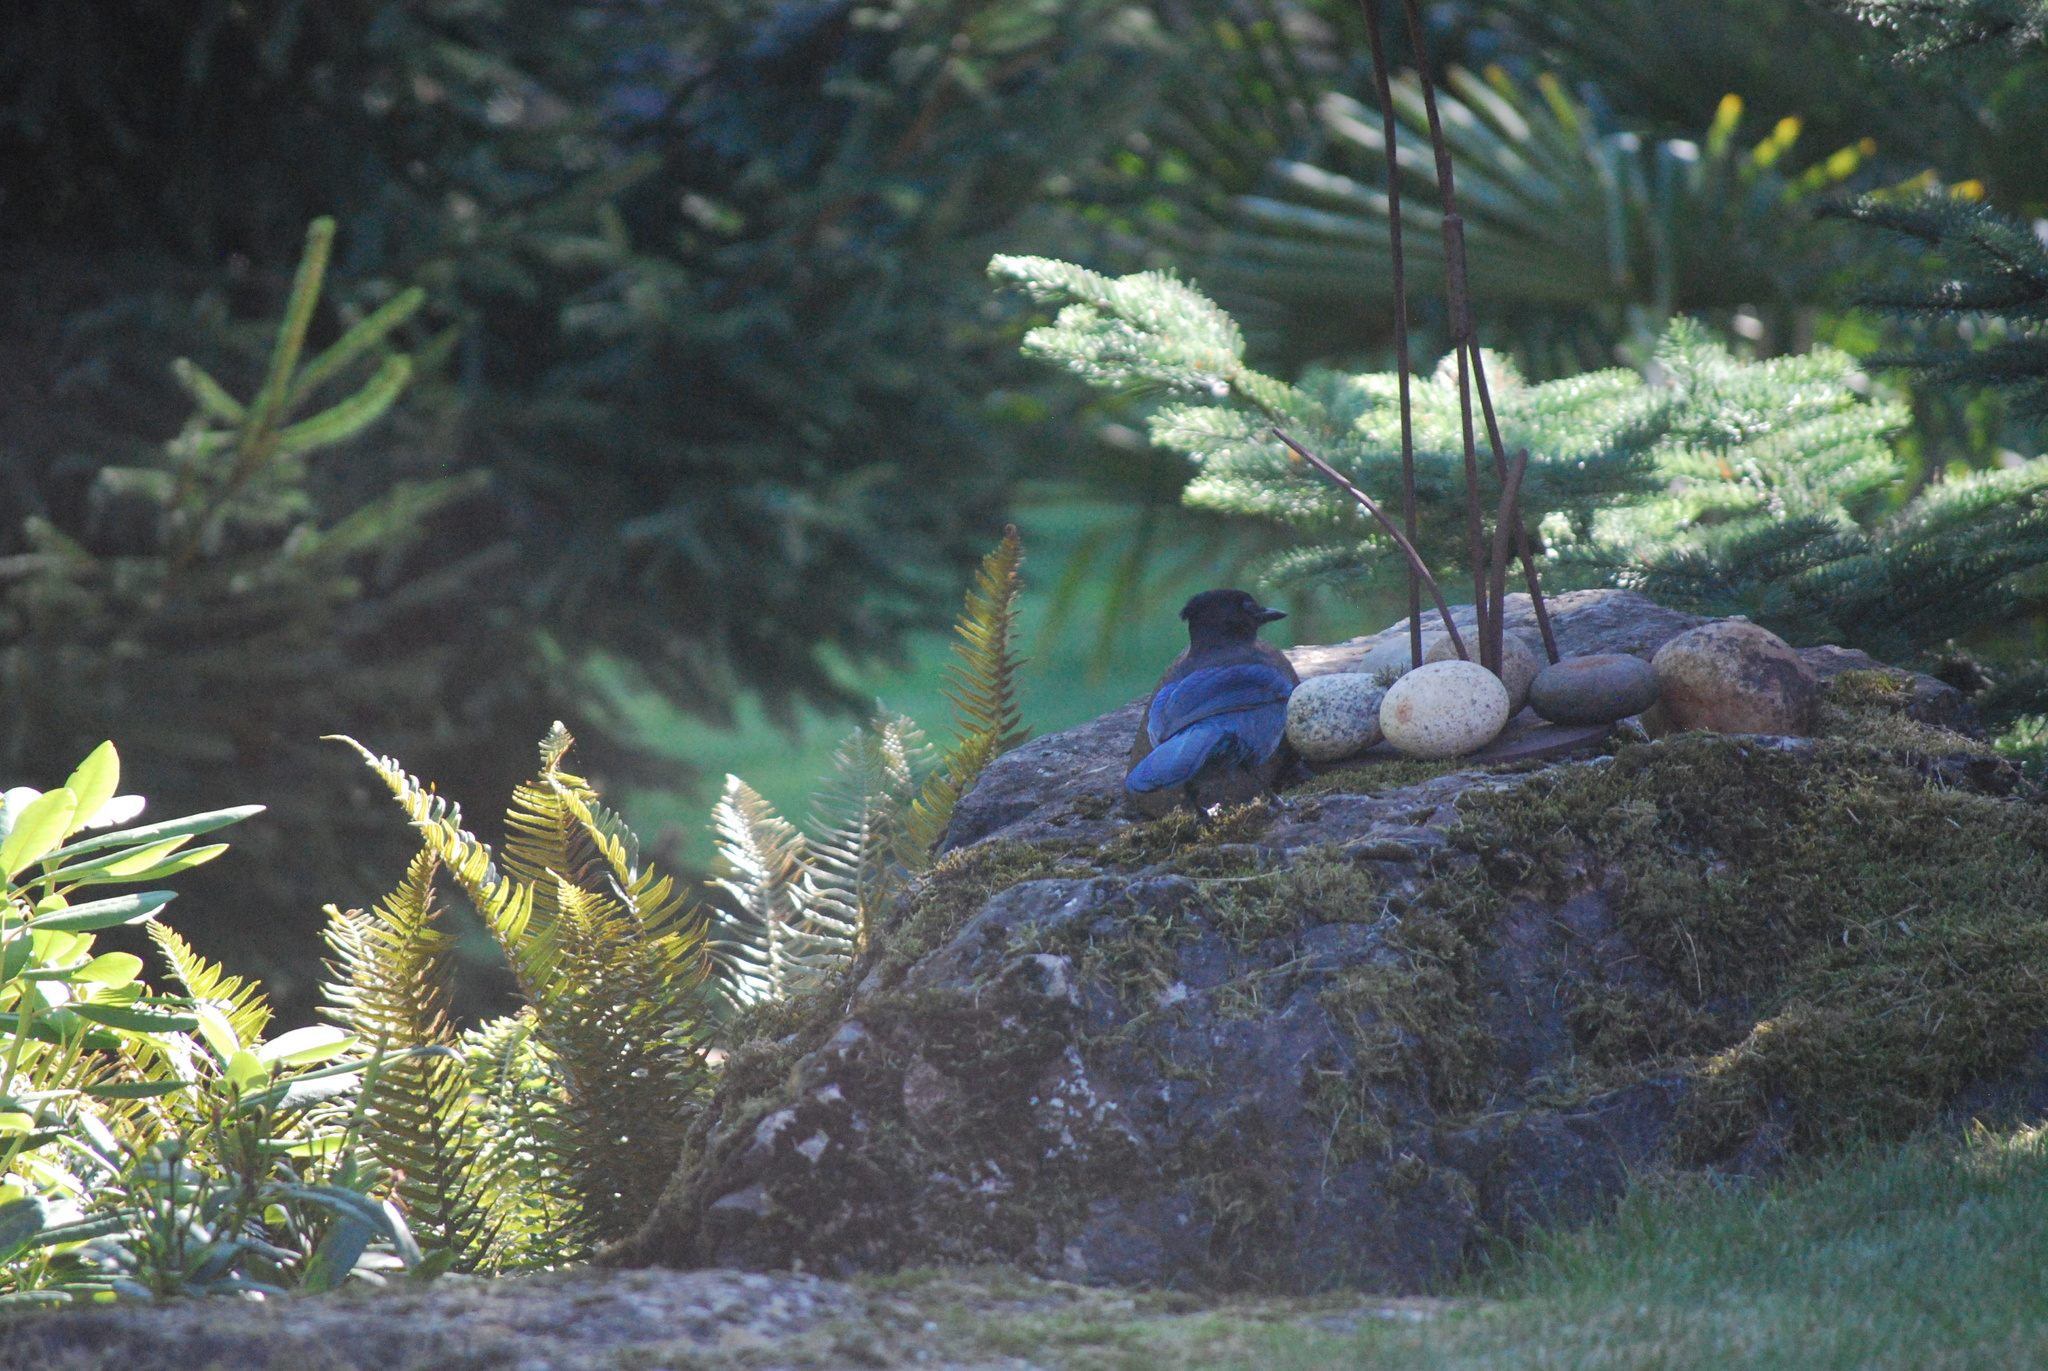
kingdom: Animalia
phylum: Chordata
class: Aves
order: Passeriformes
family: Corvidae
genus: Cyanocitta
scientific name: Cyanocitta stelleri
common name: Steller's jay
